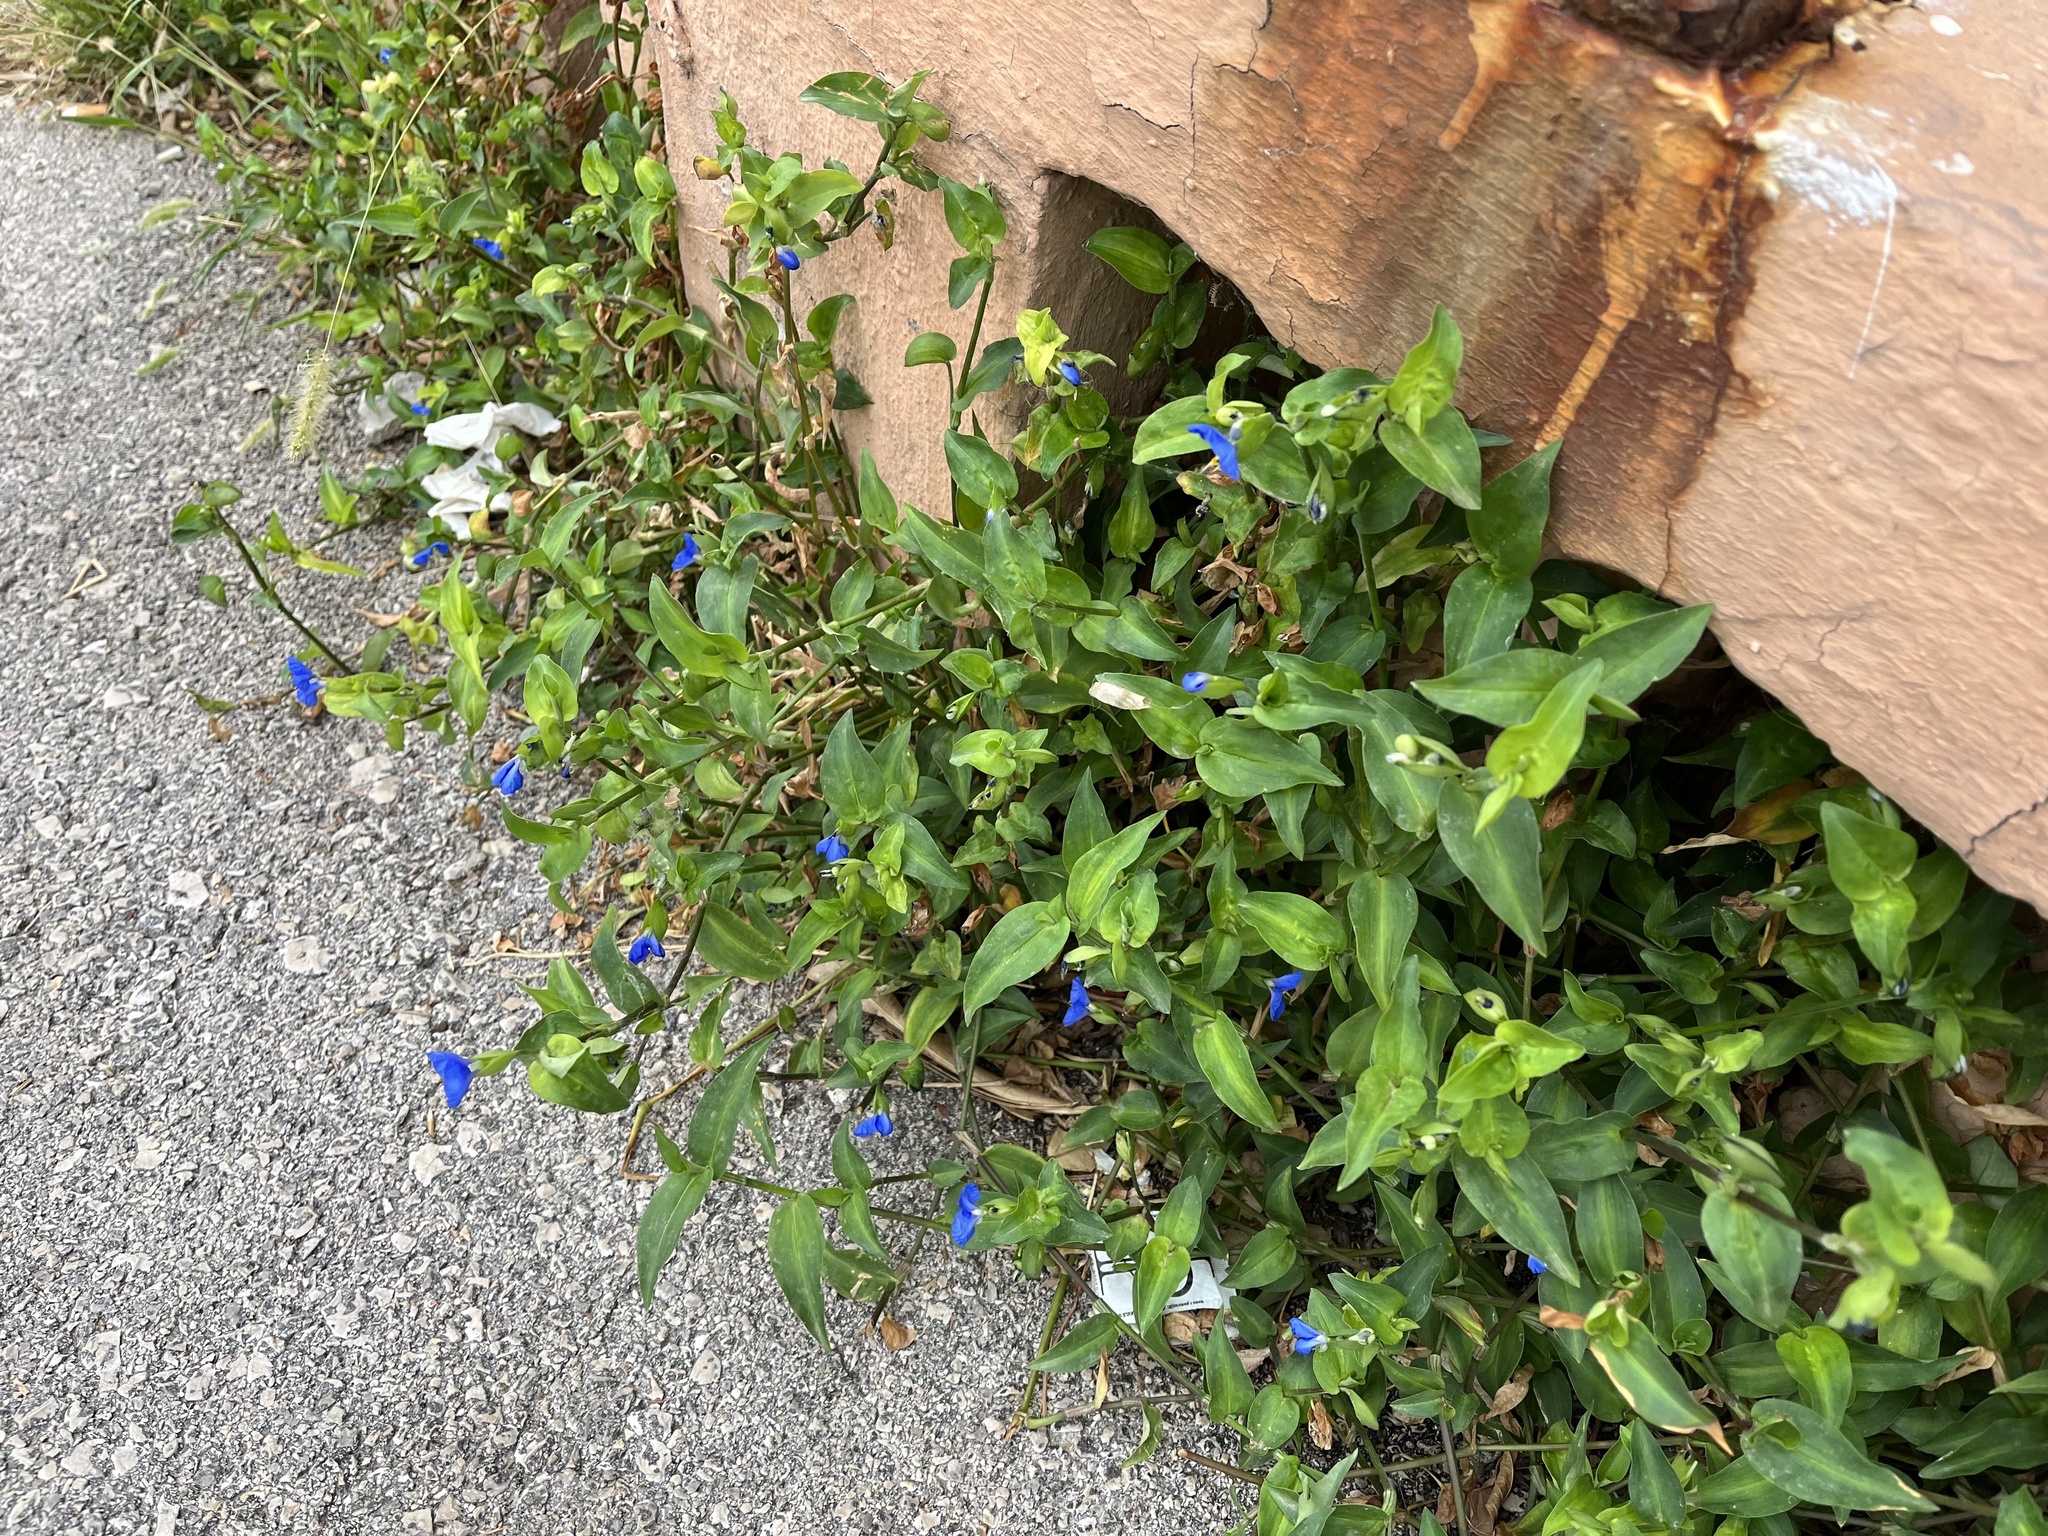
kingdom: Plantae
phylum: Tracheophyta
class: Liliopsida
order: Commelinales
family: Commelinaceae
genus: Commelina
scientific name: Commelina communis
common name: Asiatic dayflower
